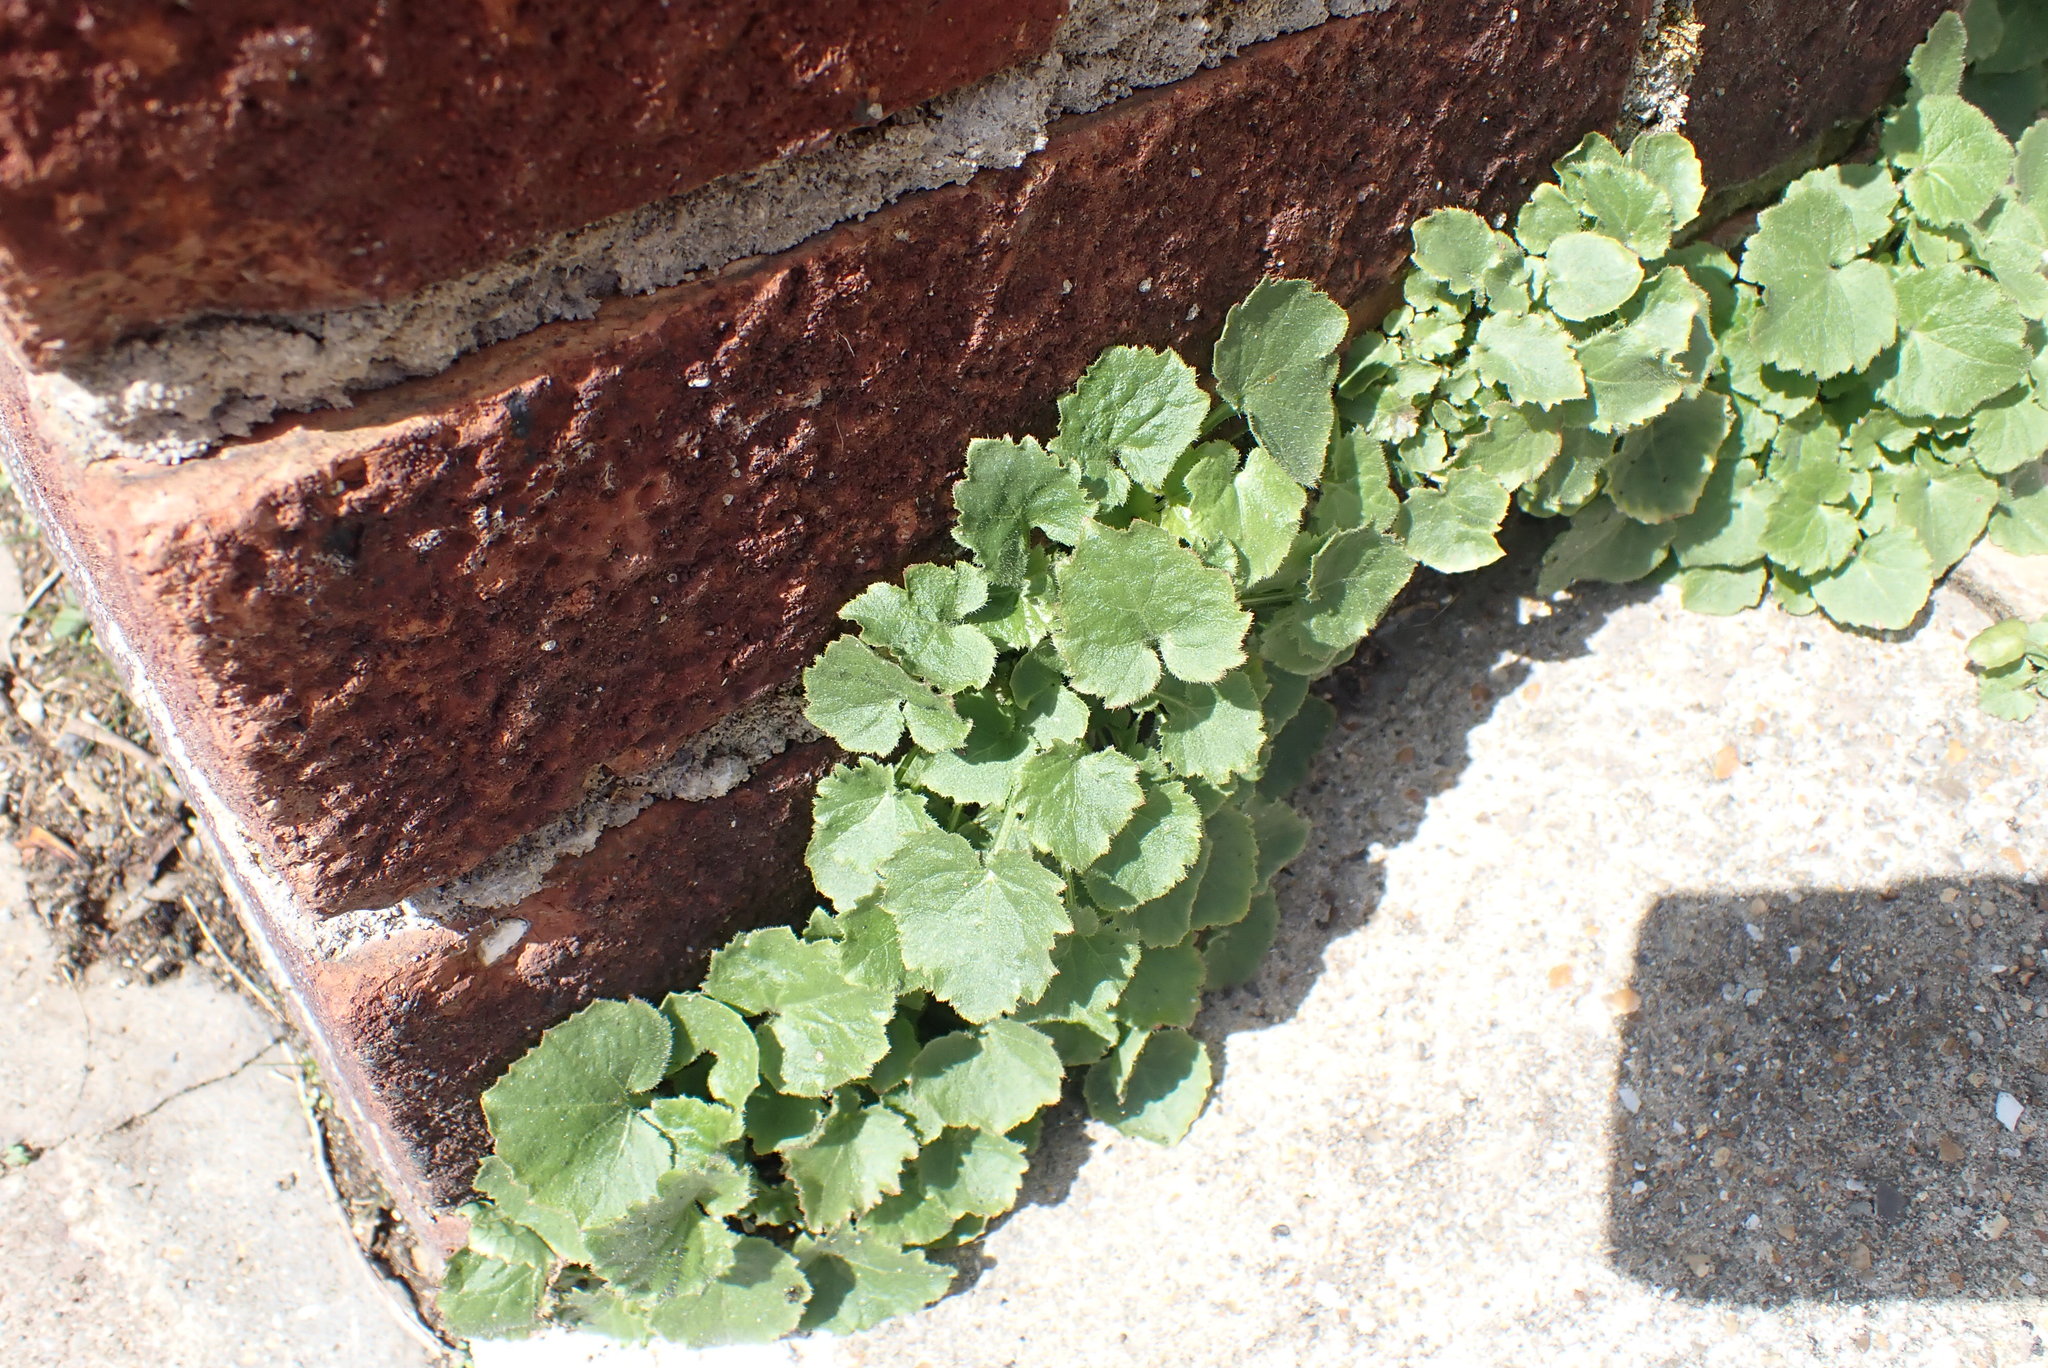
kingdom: Plantae
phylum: Tracheophyta
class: Magnoliopsida
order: Asterales
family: Campanulaceae
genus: Campanula
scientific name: Campanula portenschlagiana
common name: Adria bellflower
